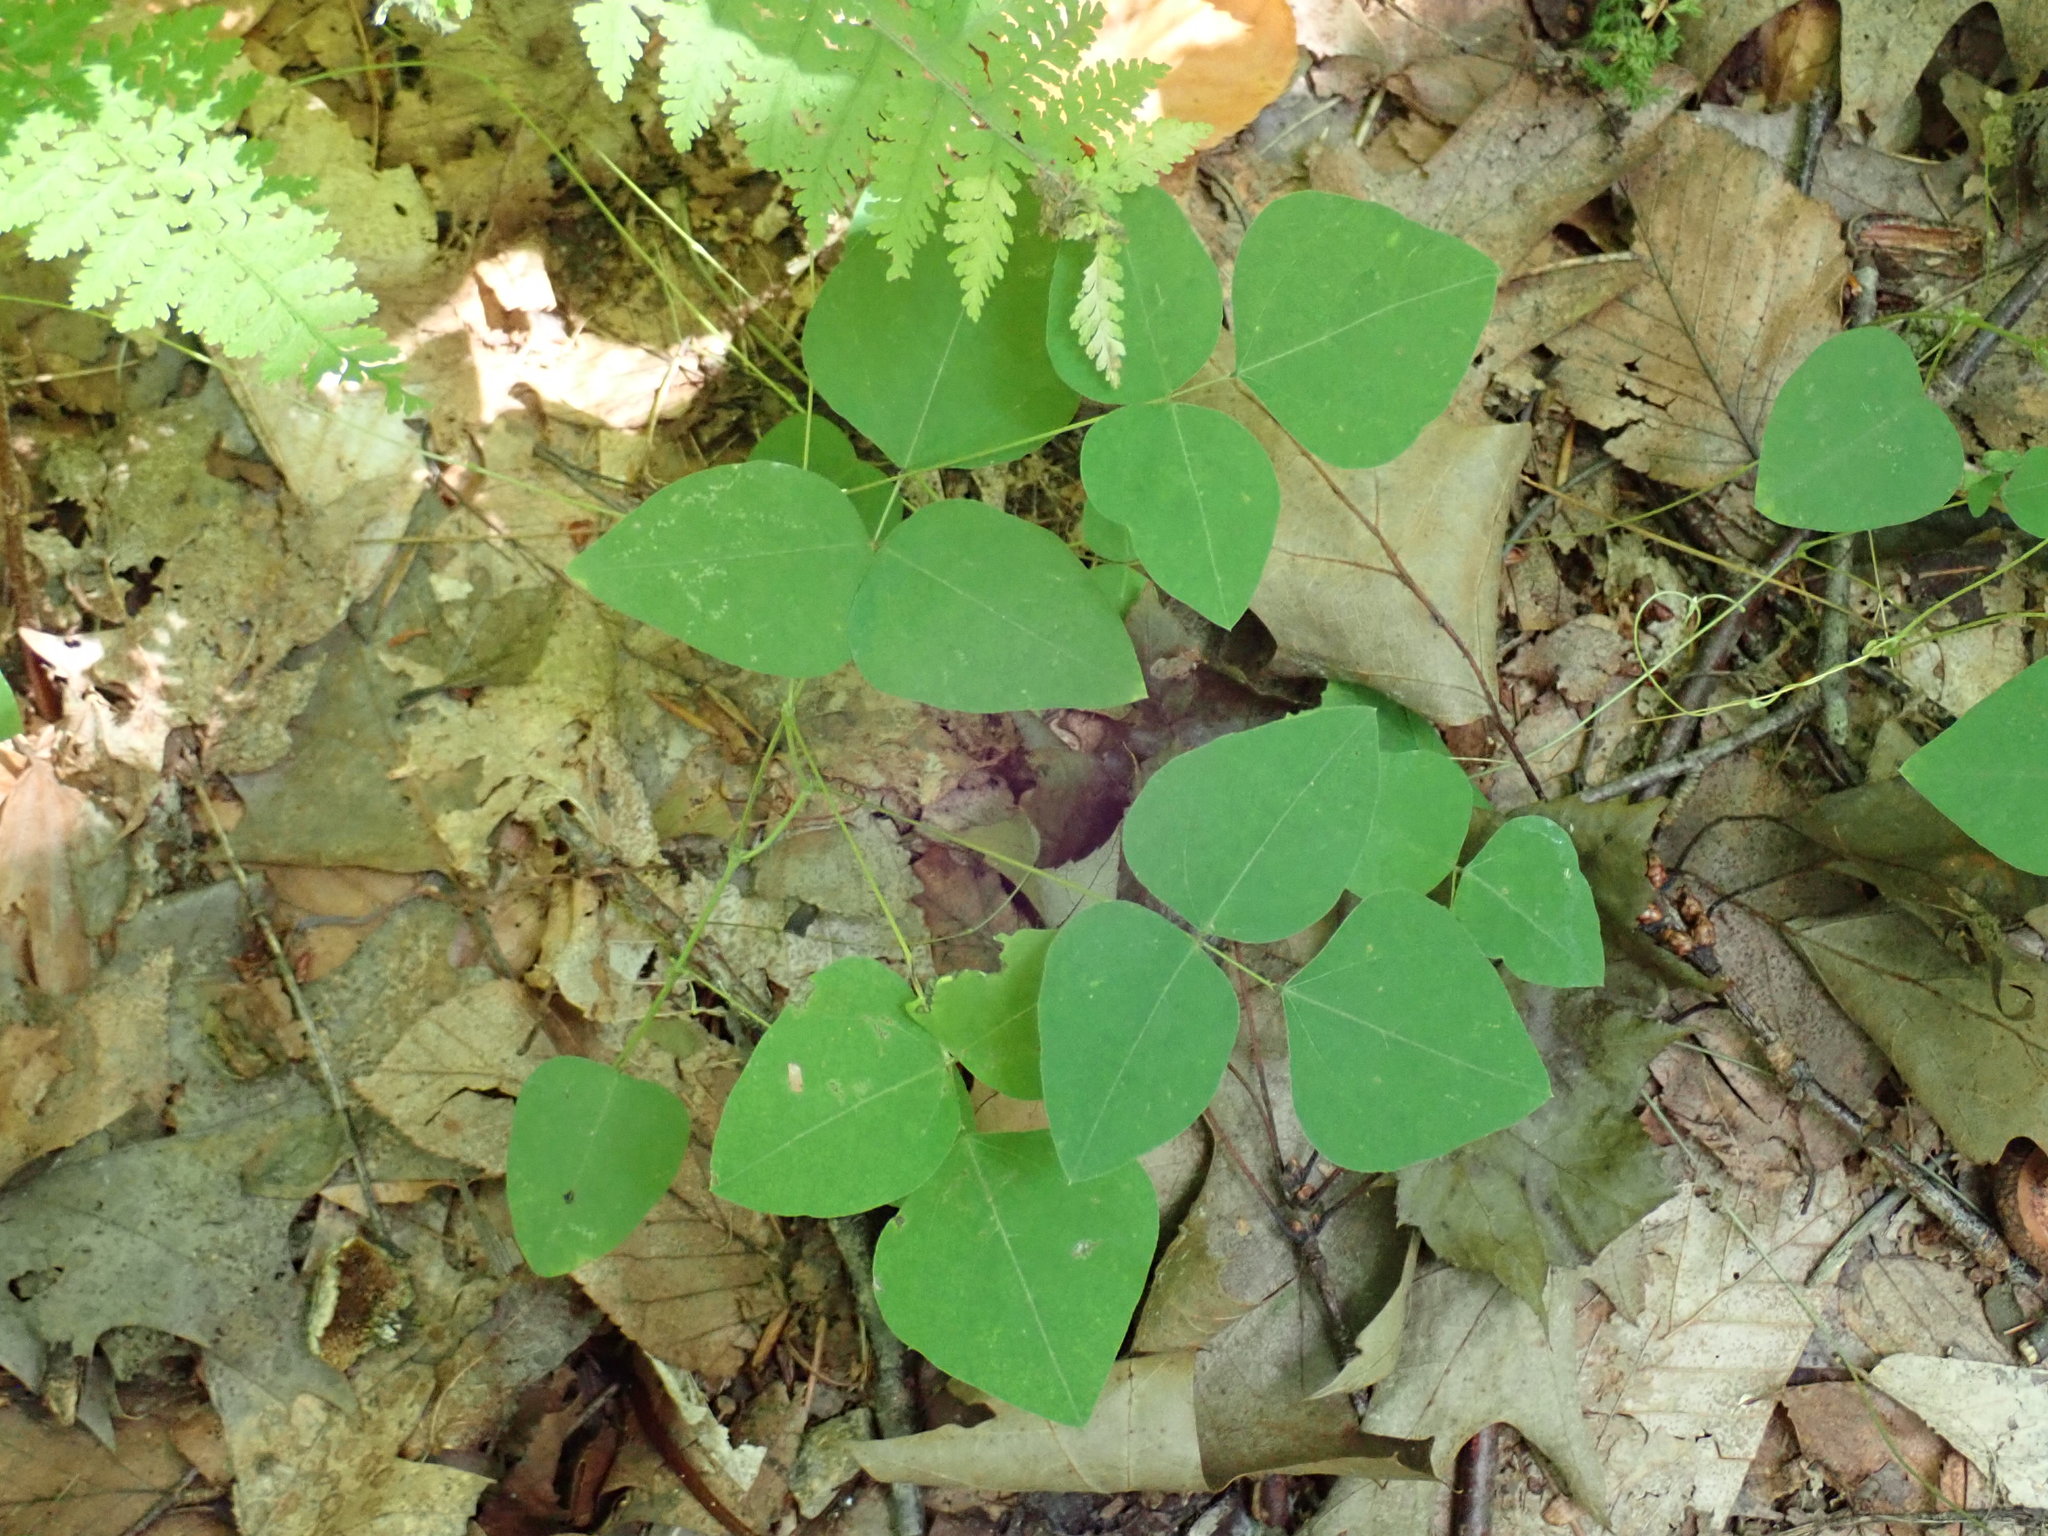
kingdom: Plantae
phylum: Tracheophyta
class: Magnoliopsida
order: Fabales
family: Fabaceae
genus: Amphicarpaea
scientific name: Amphicarpaea bracteata
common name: American hog peanut
